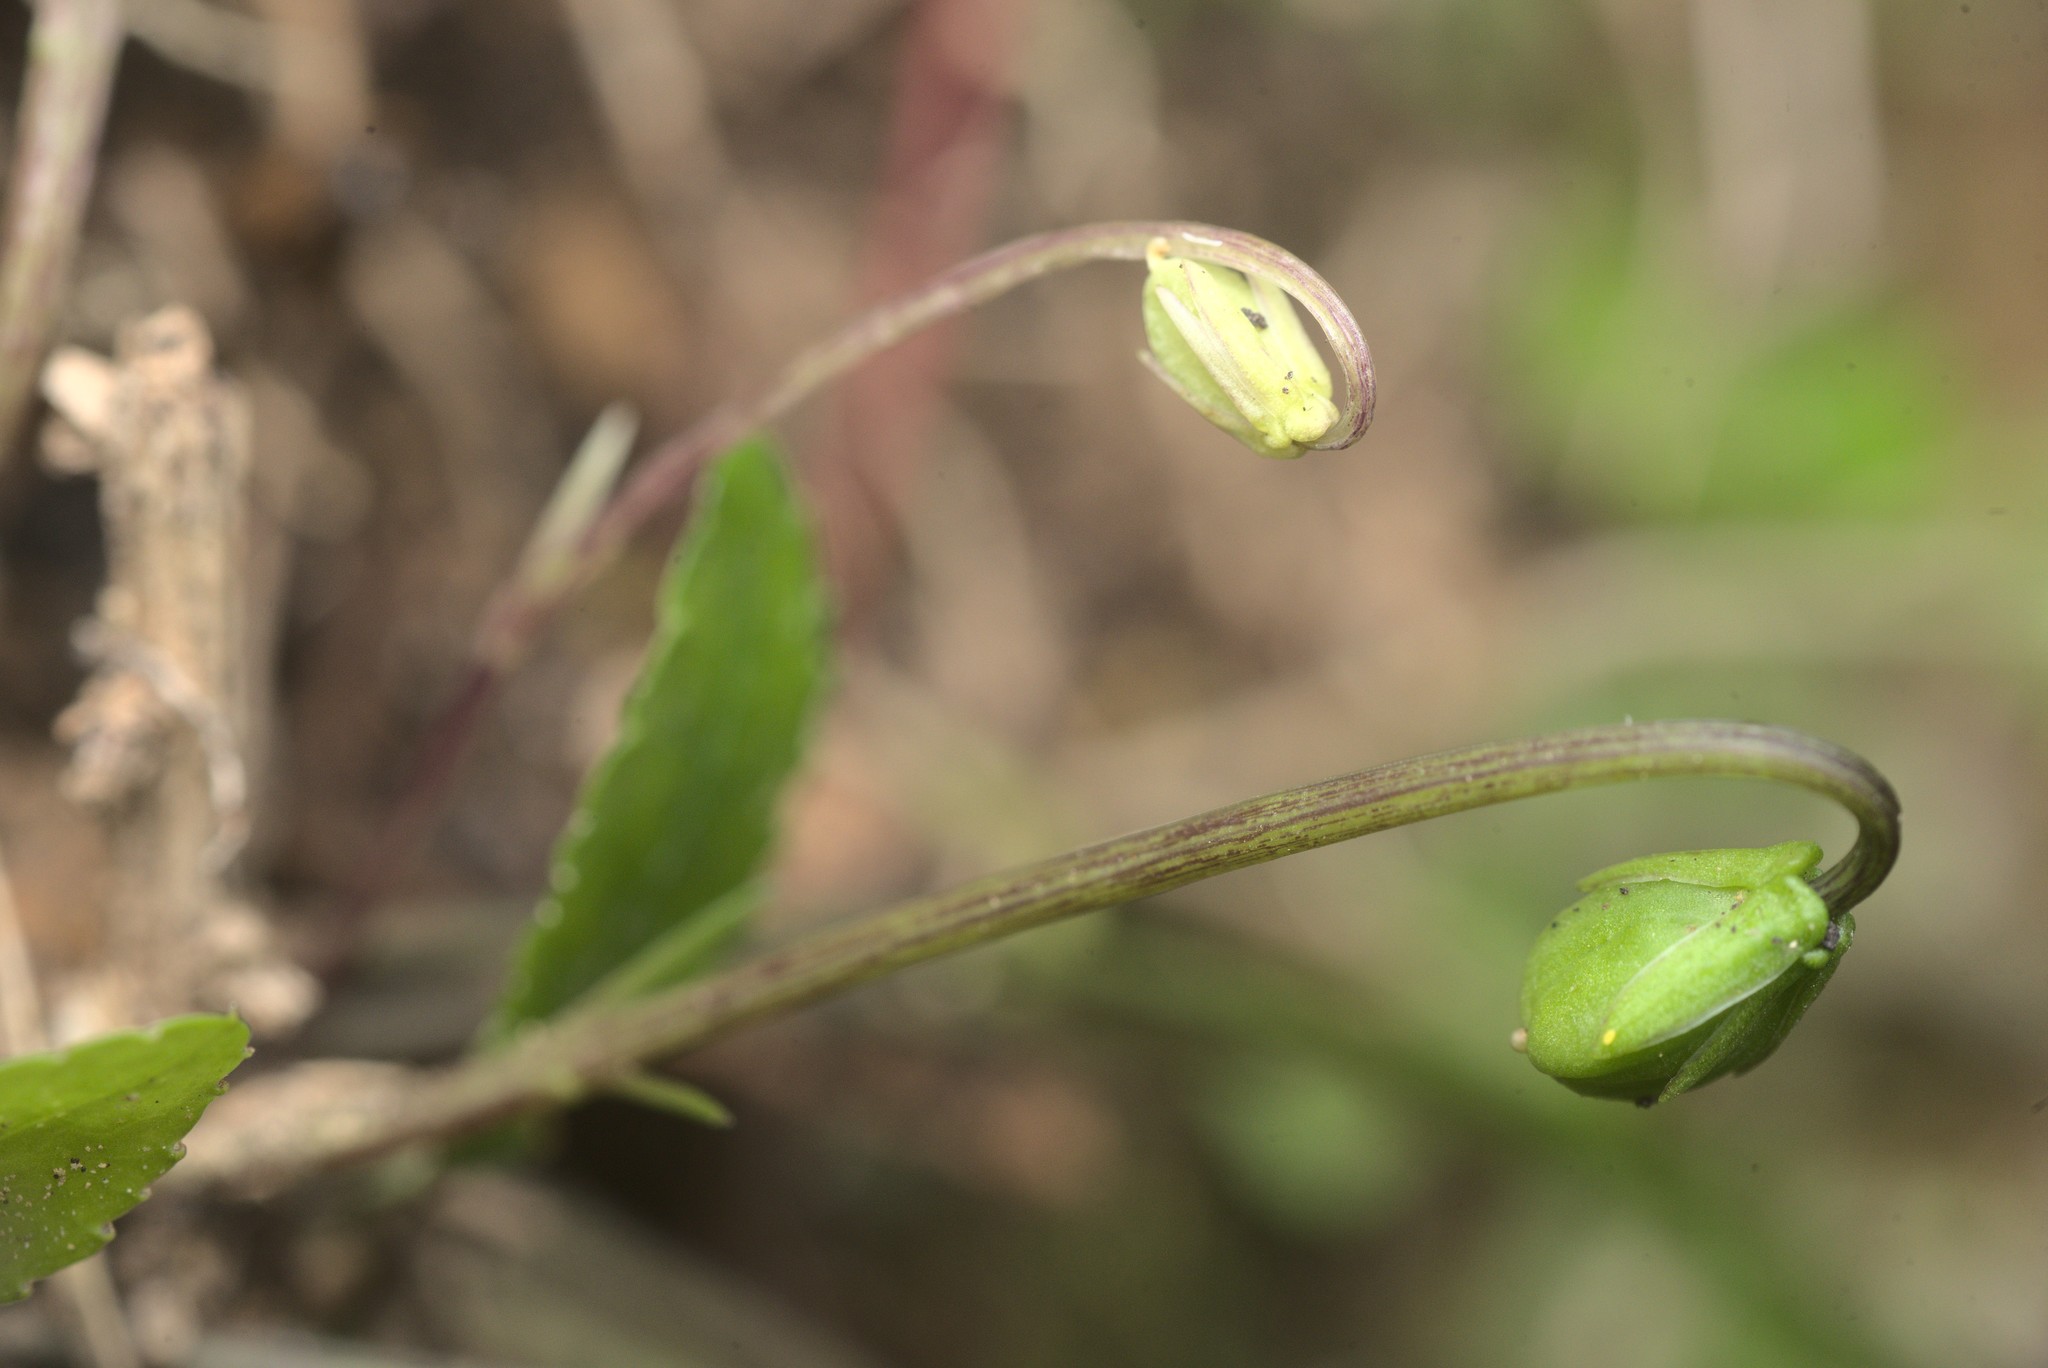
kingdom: Plantae
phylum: Tracheophyta
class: Magnoliopsida
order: Malpighiales
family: Violaceae
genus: Viola
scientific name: Viola cunninghamii
